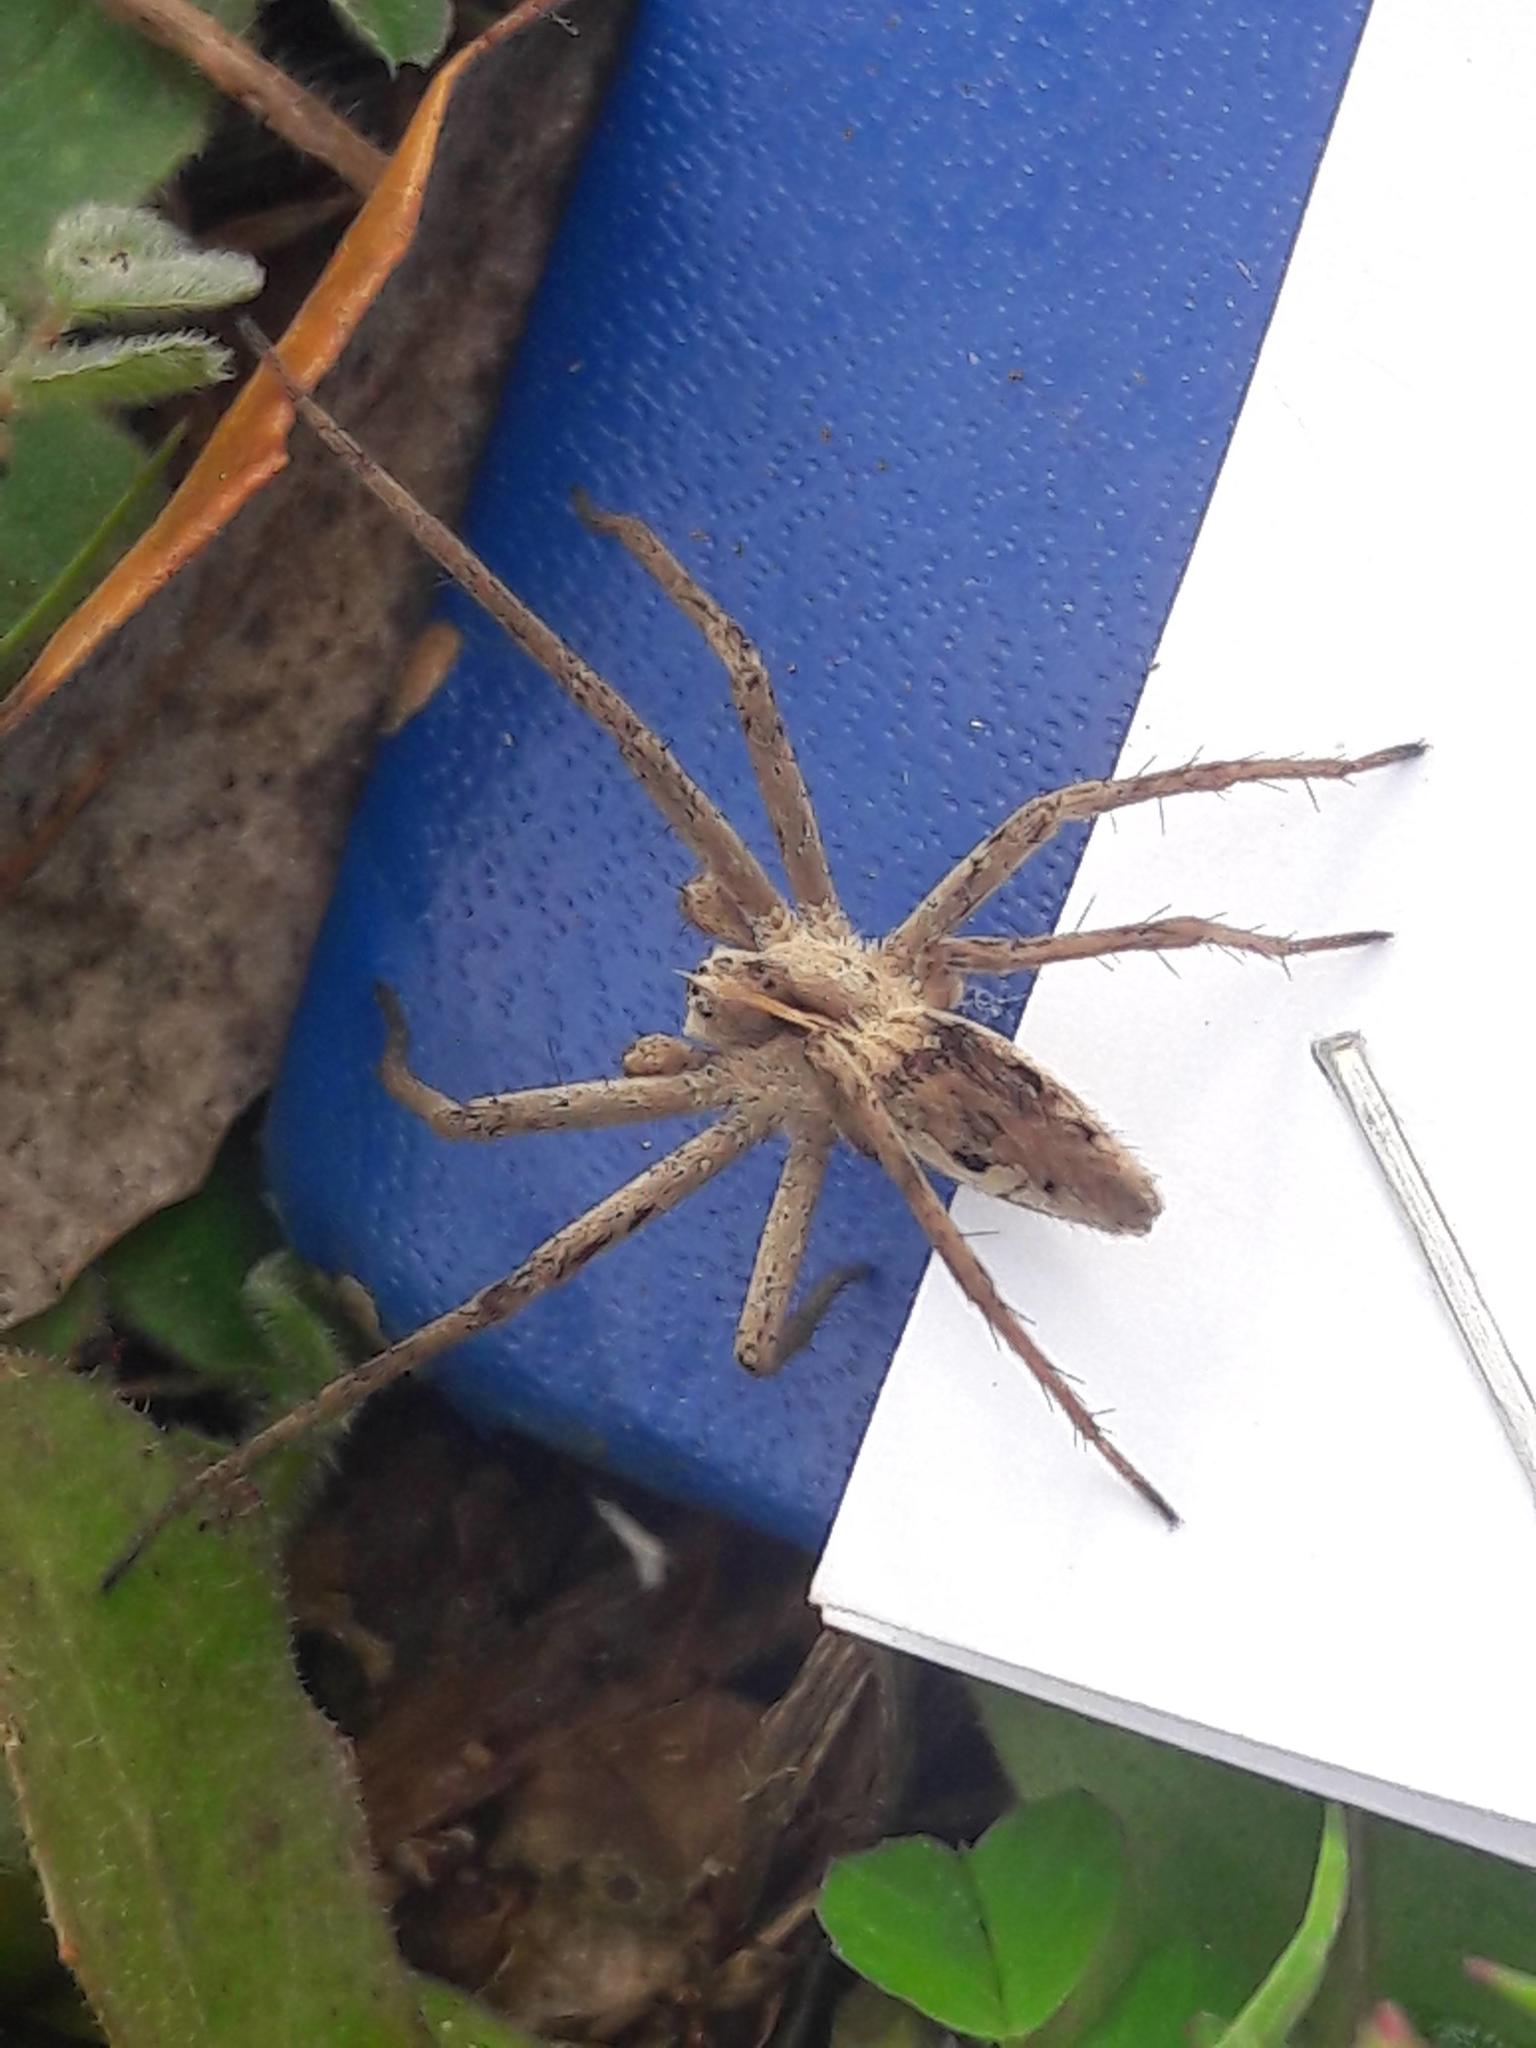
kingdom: Animalia
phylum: Arthropoda
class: Arachnida
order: Araneae
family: Pisauridae
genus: Pisaura
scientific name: Pisaura
